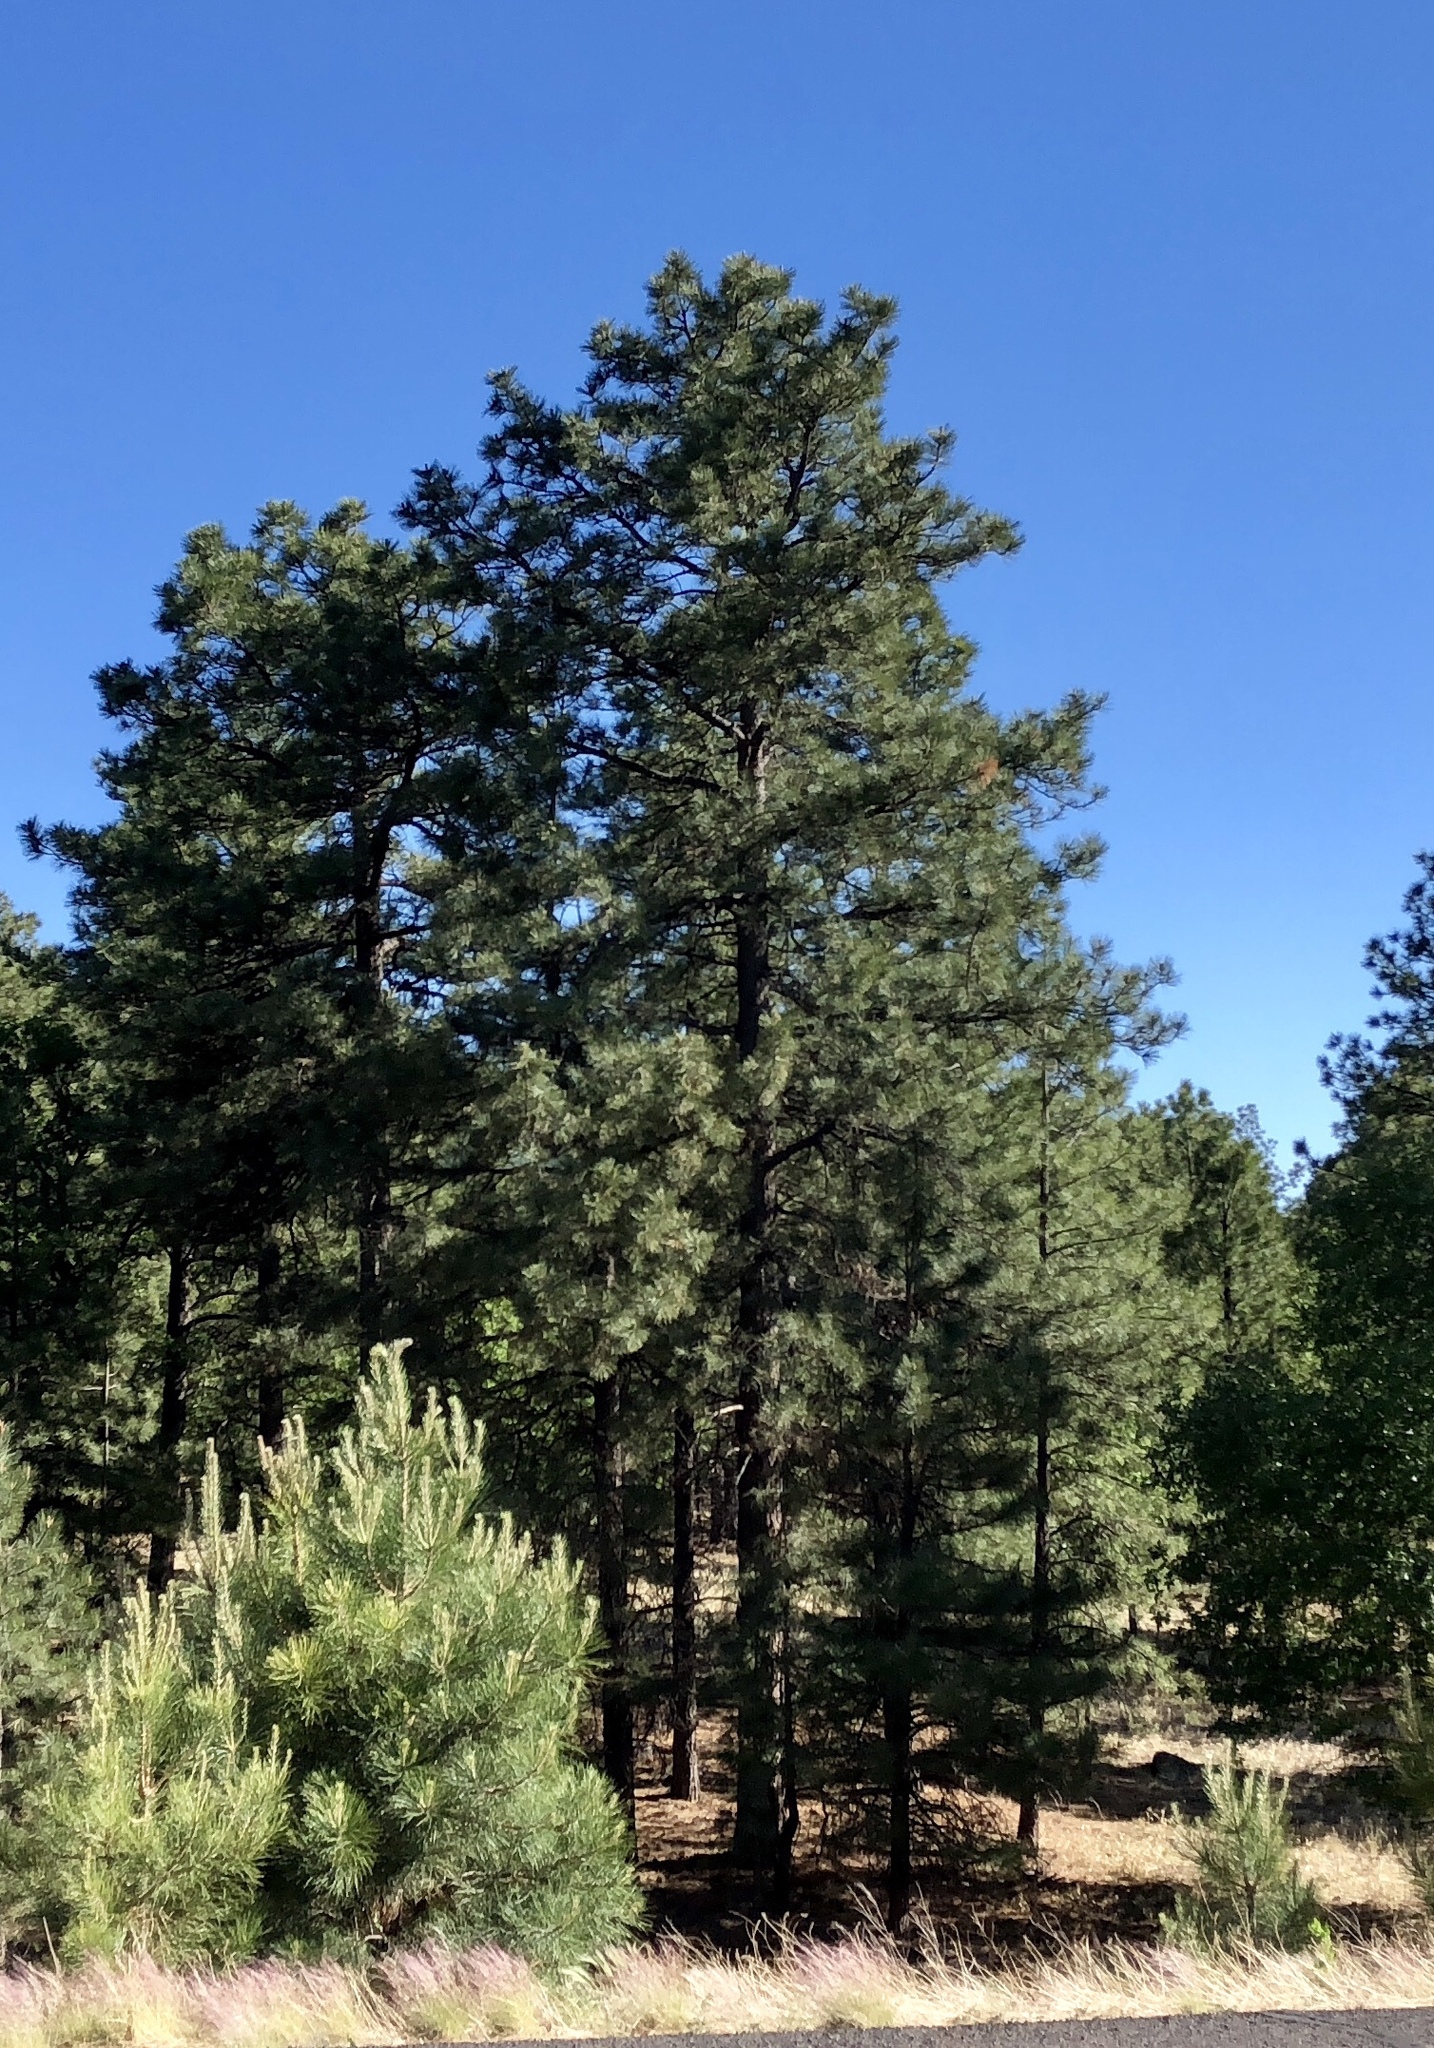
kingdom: Plantae
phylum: Tracheophyta
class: Pinopsida
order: Pinales
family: Pinaceae
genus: Pinus
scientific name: Pinus ponderosa
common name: Western yellow-pine
